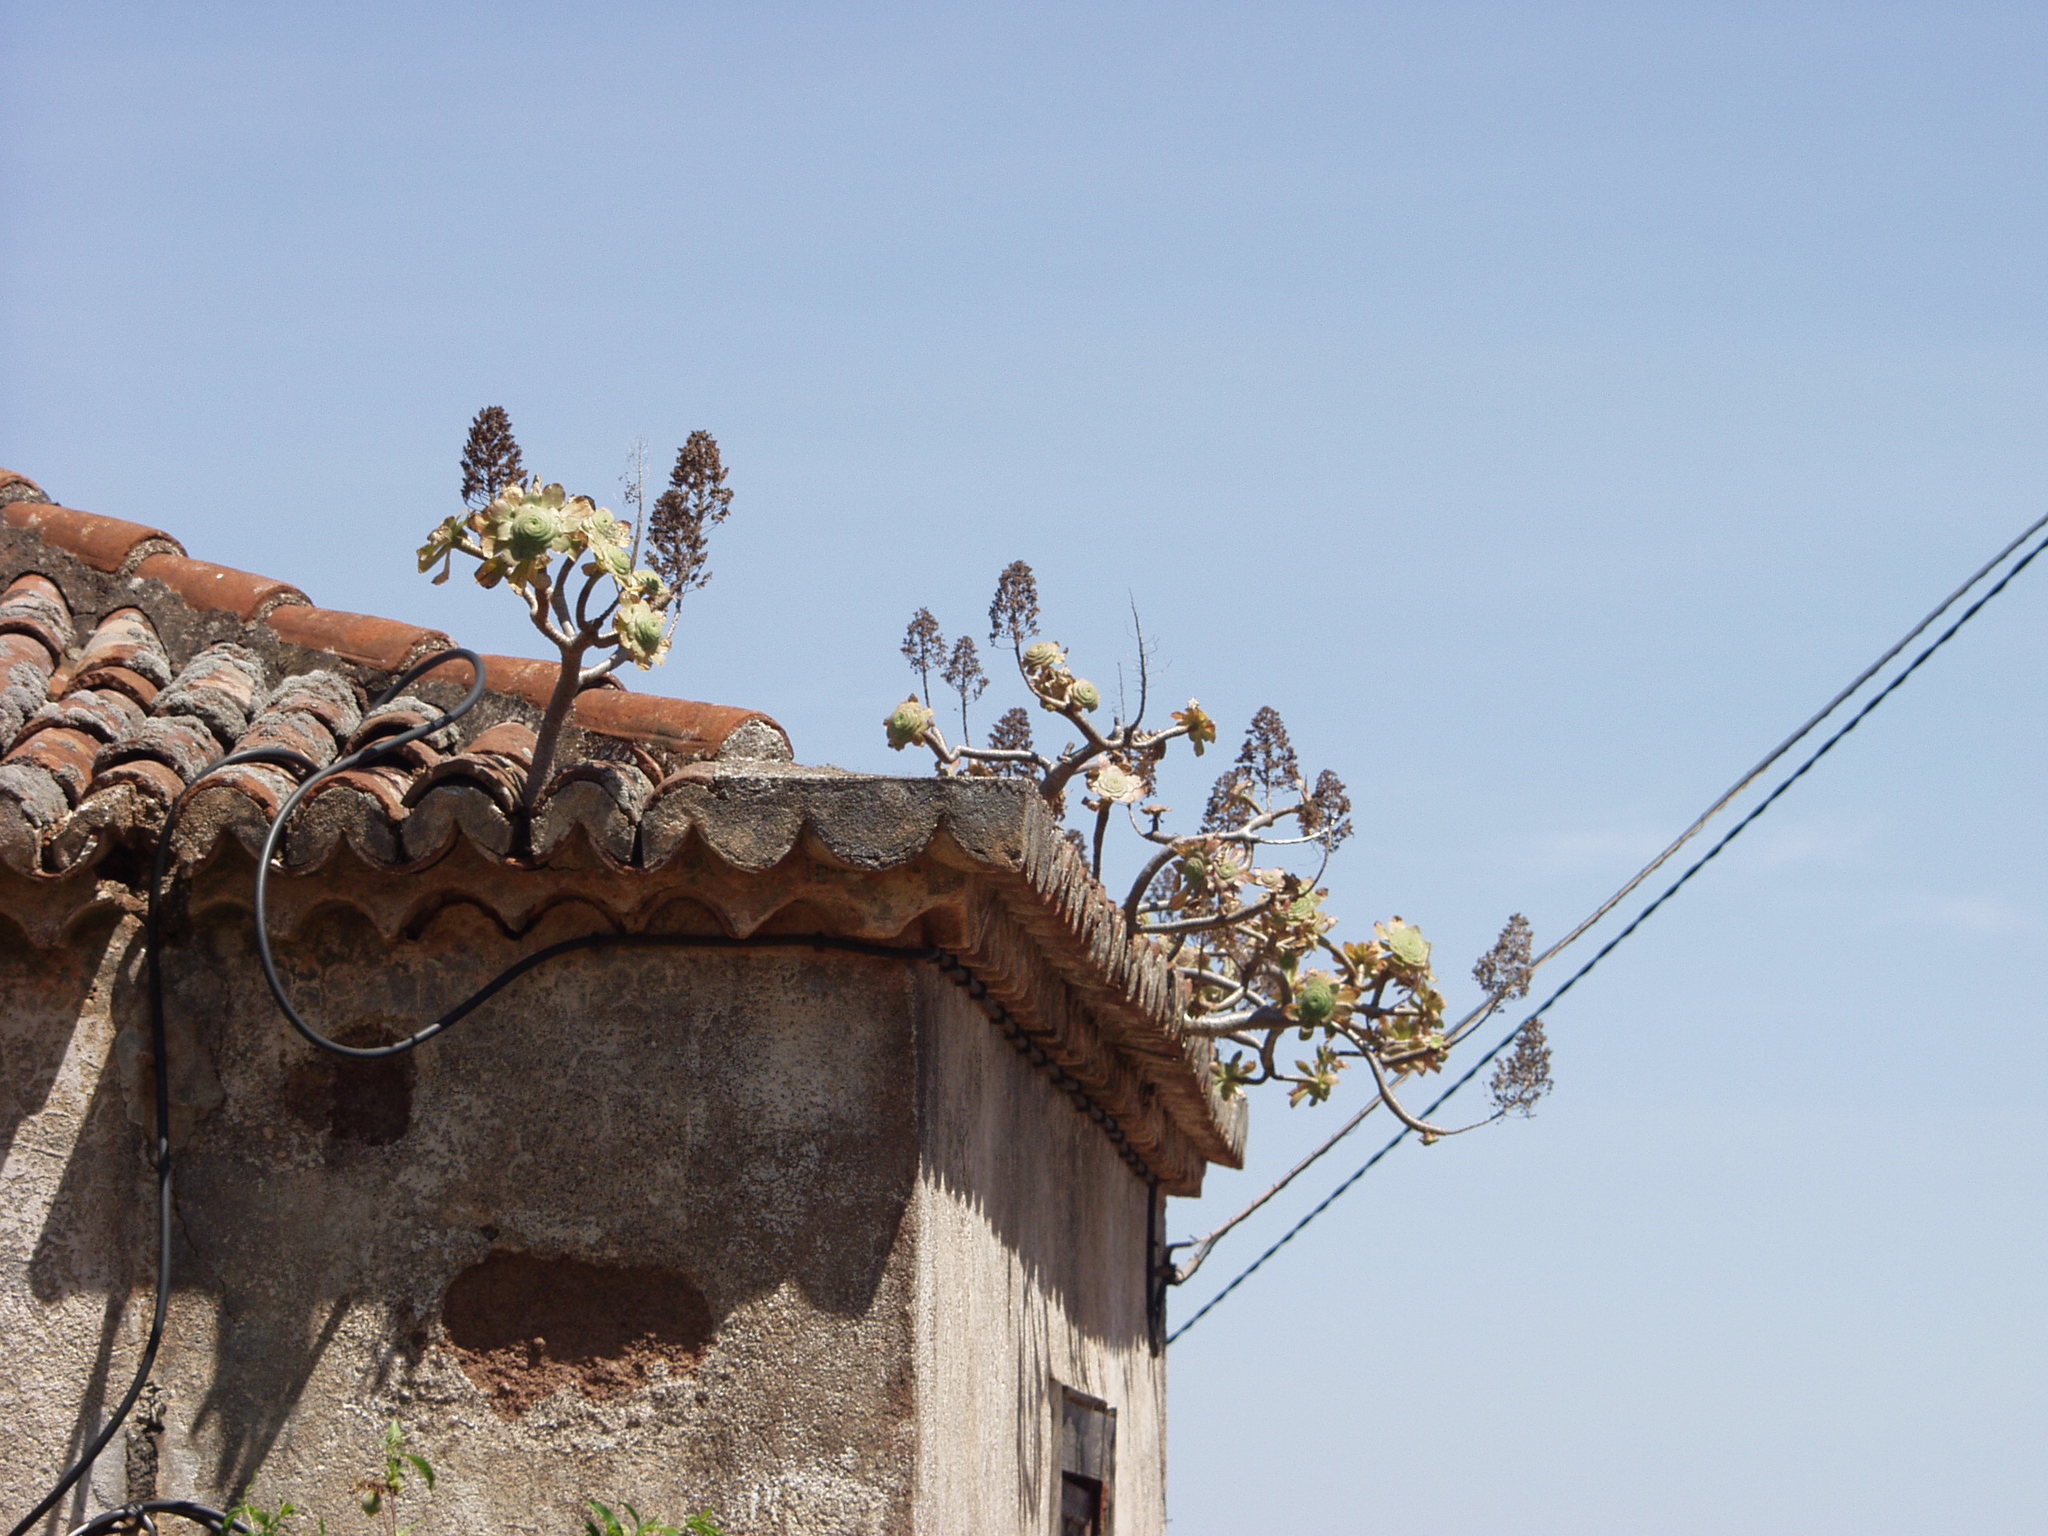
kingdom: Plantae
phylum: Tracheophyta
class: Magnoliopsida
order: Saxifragales
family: Crassulaceae
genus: Aeonium
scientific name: Aeonium arboreum
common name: Tree aeonium
